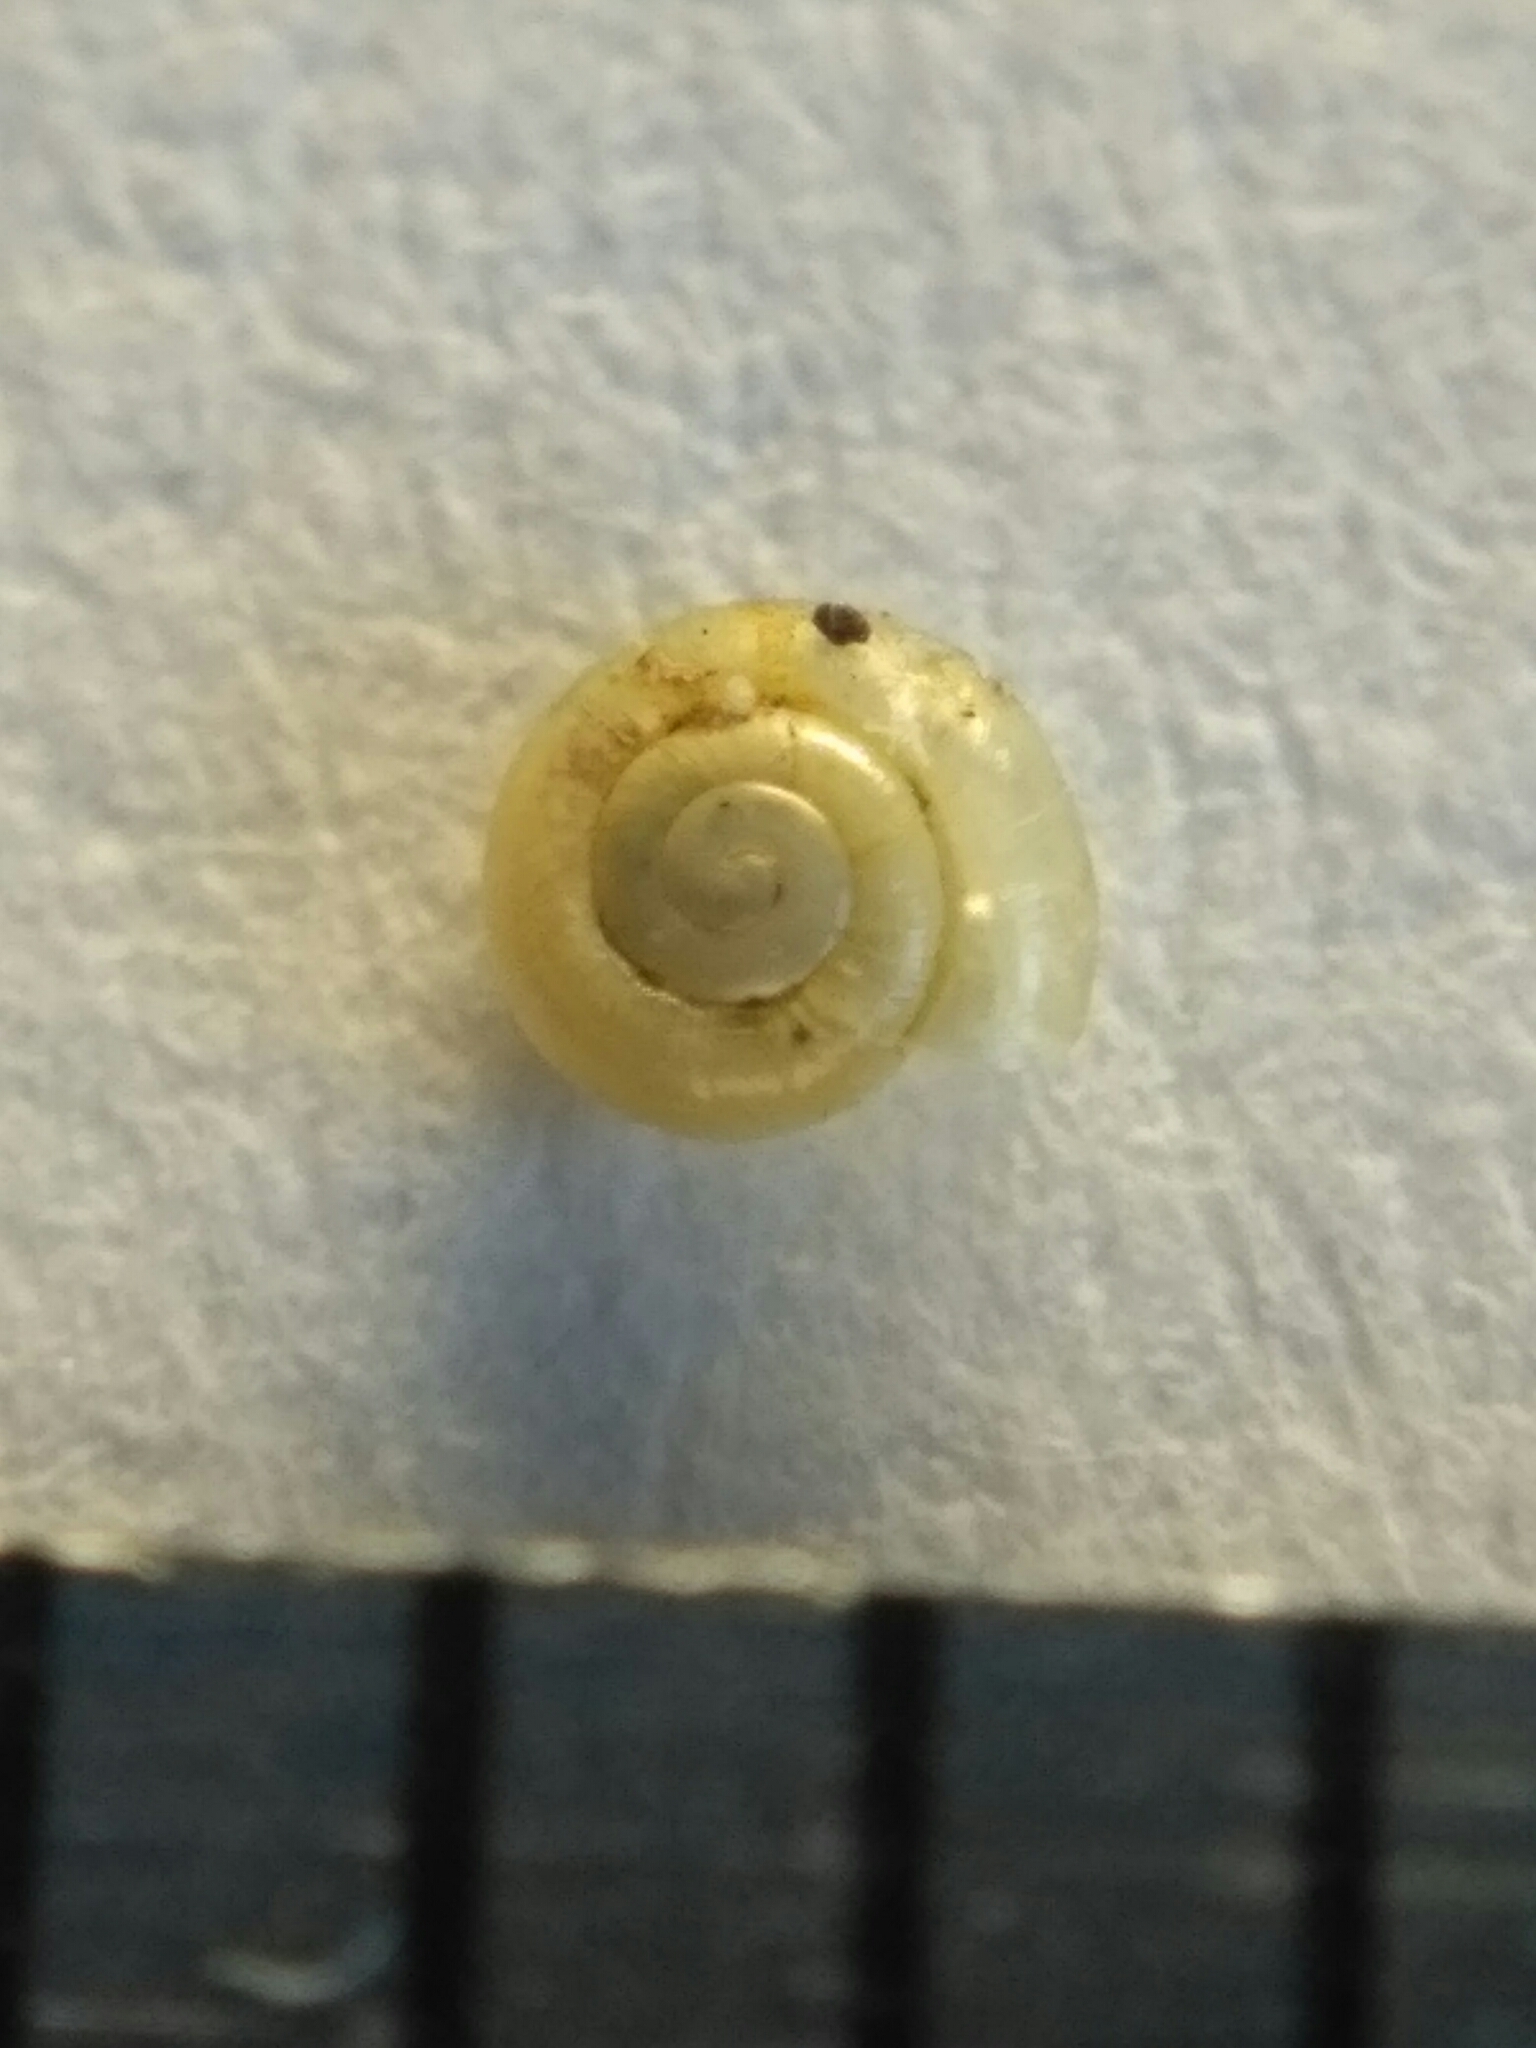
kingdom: Animalia
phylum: Mollusca
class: Gastropoda
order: Stylommatophora
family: Helicodiscidae
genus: Lucilla
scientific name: Lucilla scintilla
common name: Smooth coil
